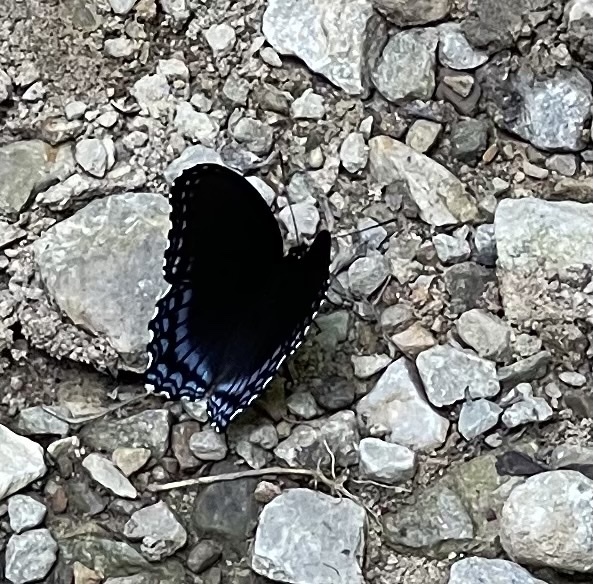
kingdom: Animalia
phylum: Arthropoda
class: Insecta
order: Lepidoptera
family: Nymphalidae
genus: Limenitis
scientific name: Limenitis astyanax
